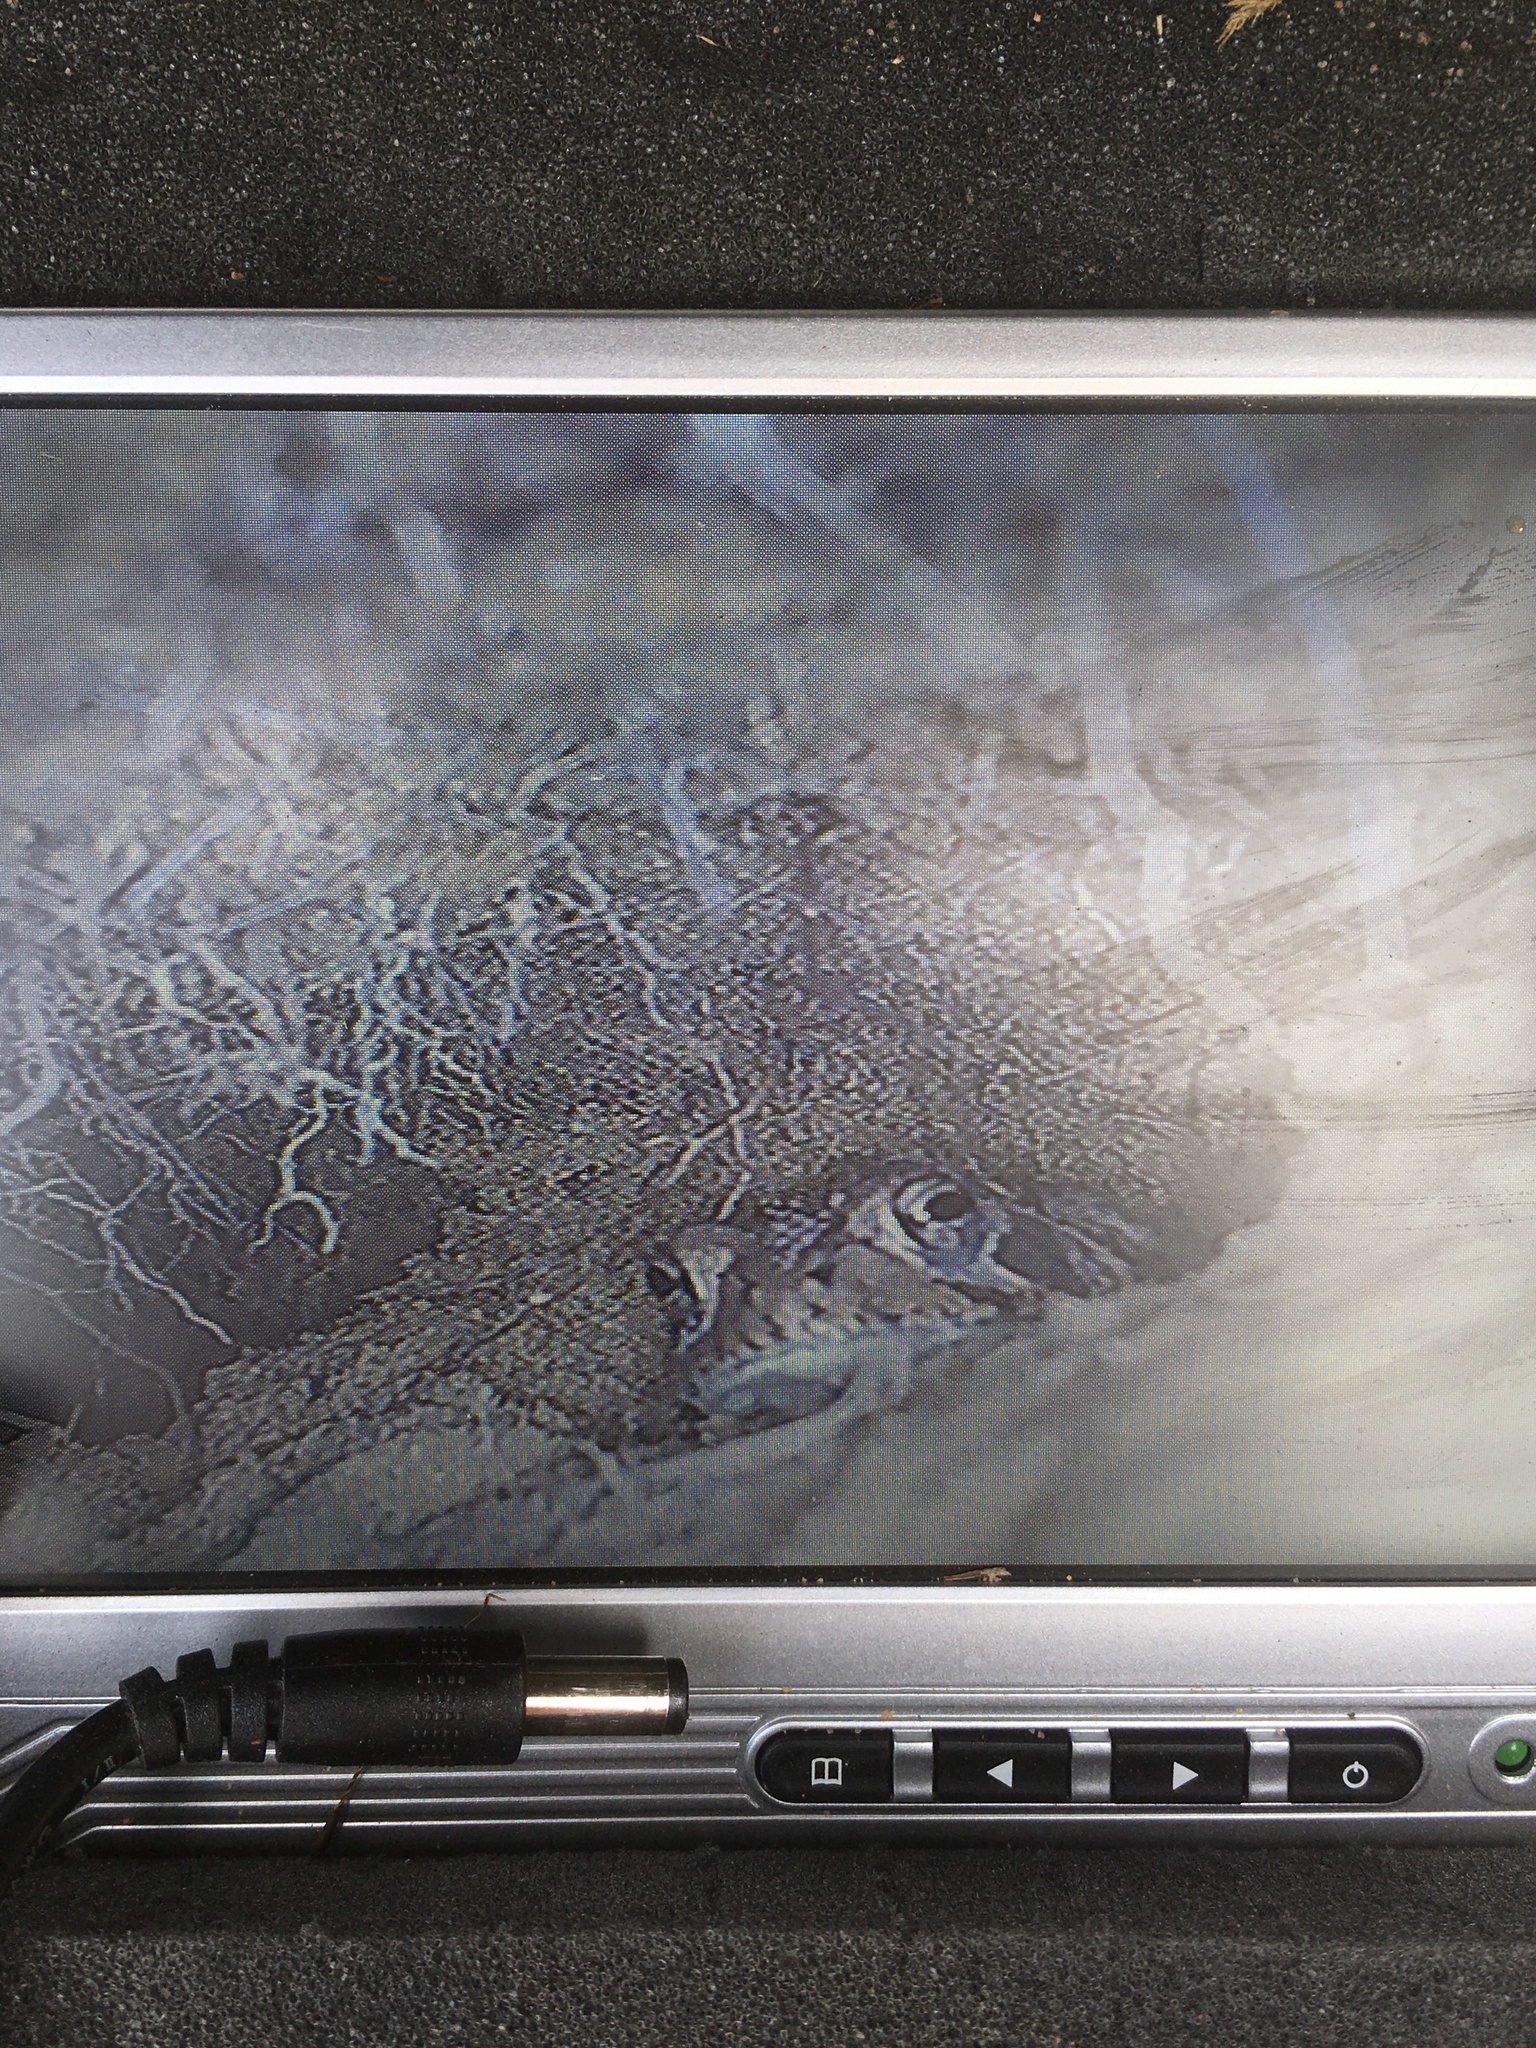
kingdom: Animalia
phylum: Chordata
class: Amphibia
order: Anura
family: Bufonidae
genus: Anaxyrus
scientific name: Anaxyrus terrestris
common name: Southern toad
